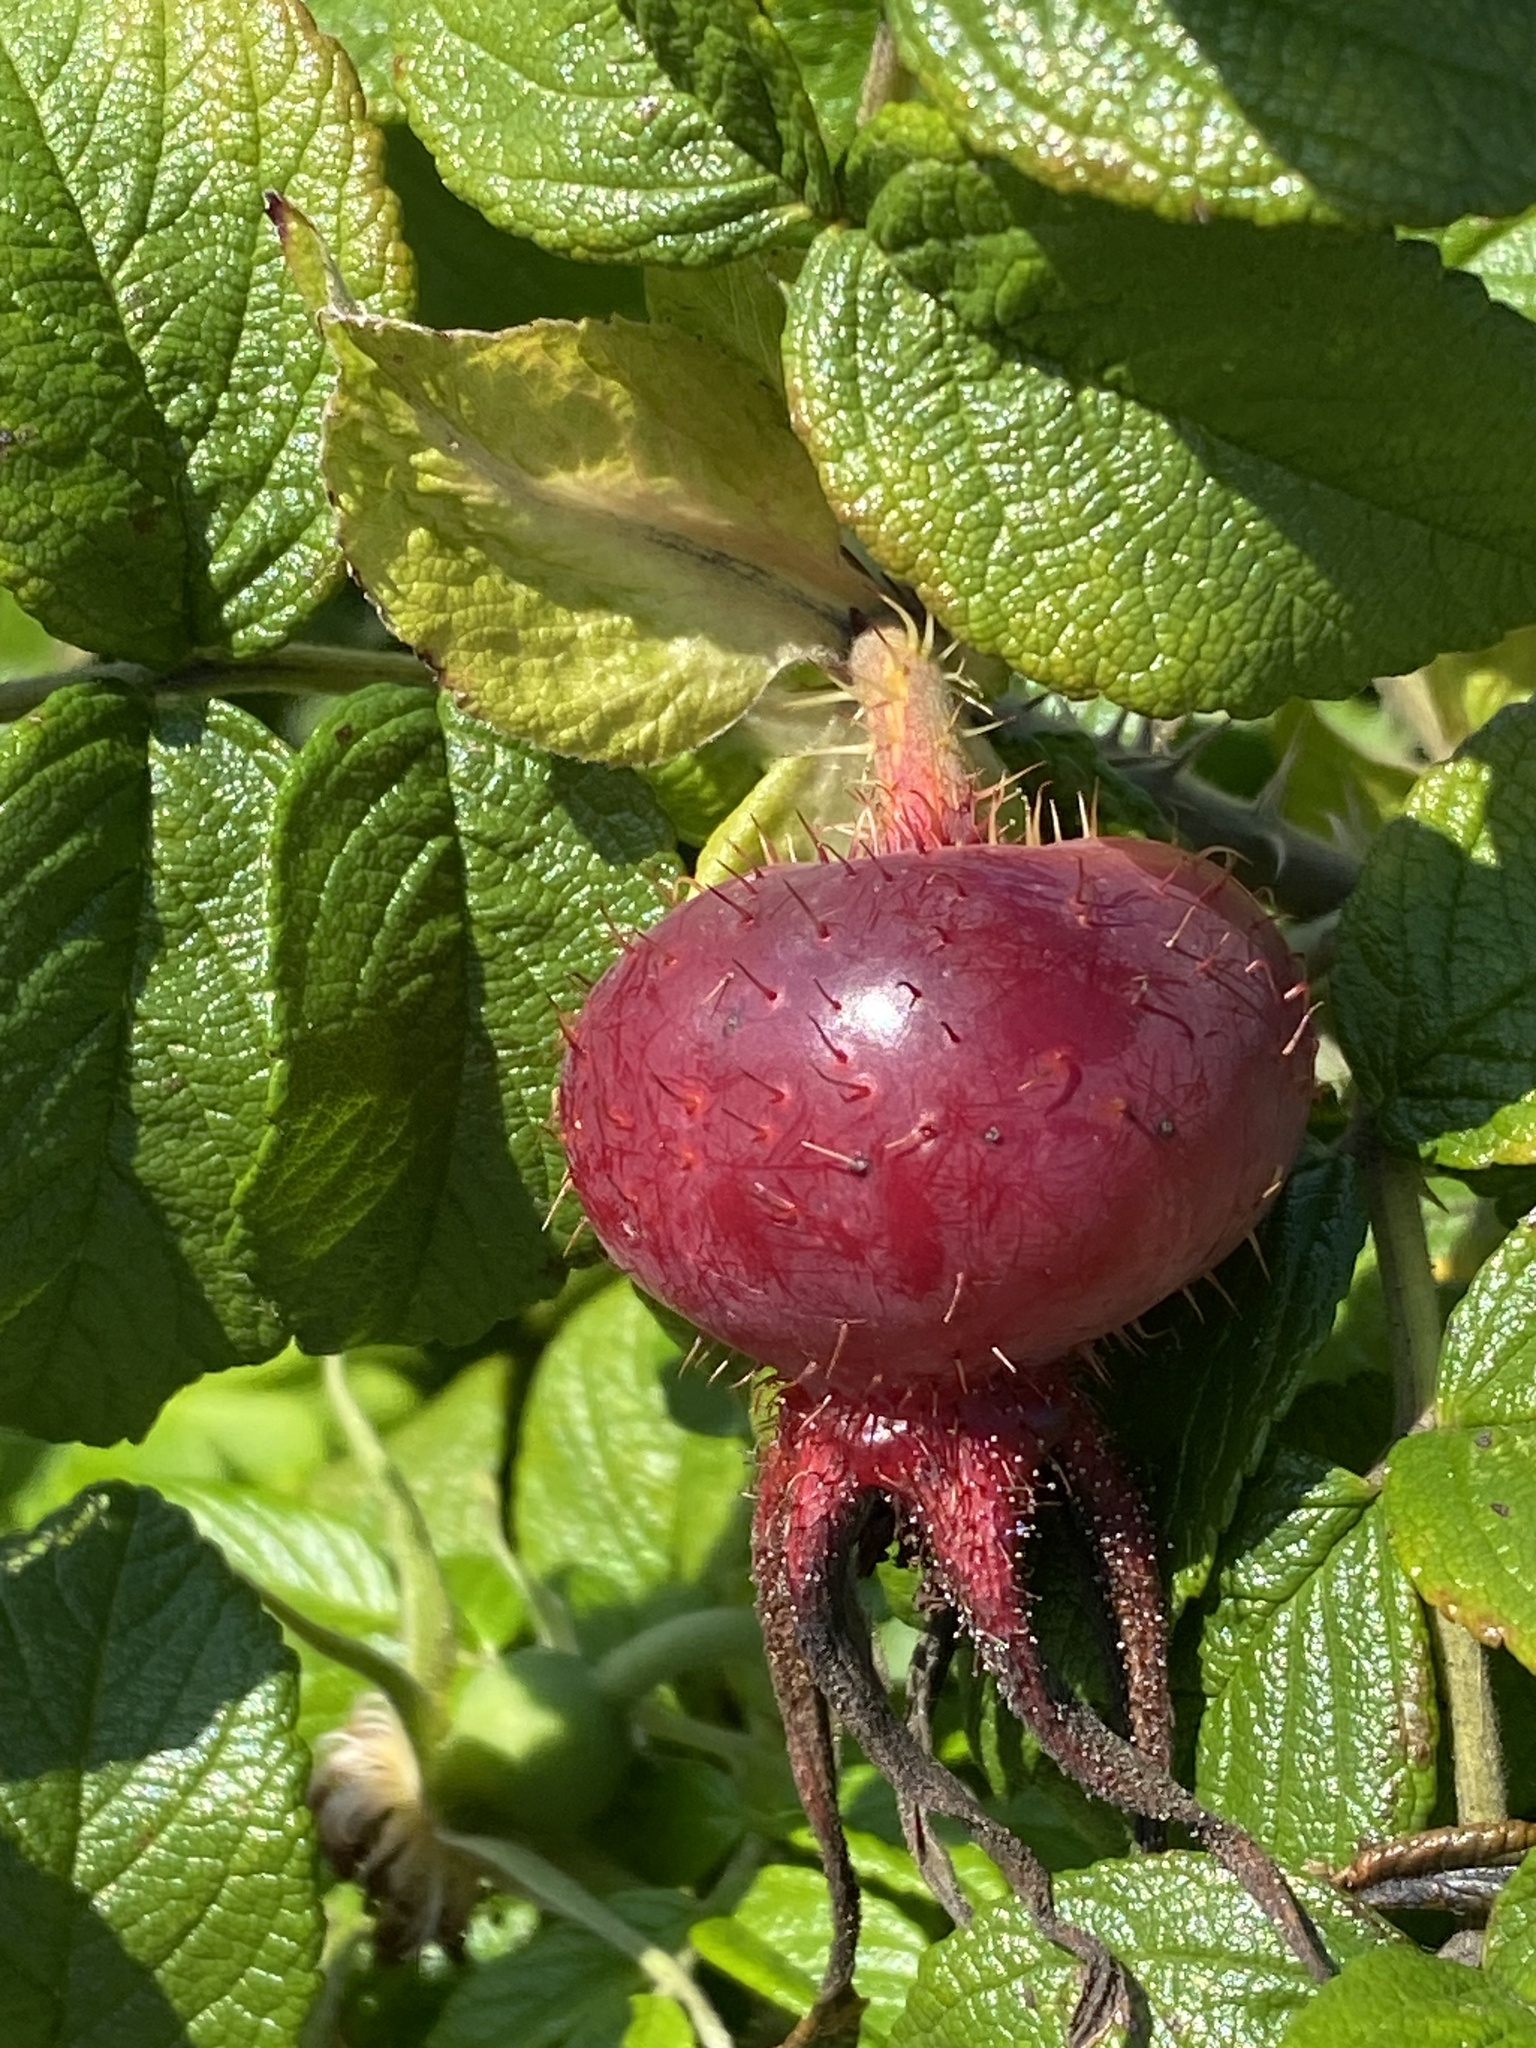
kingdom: Plantae
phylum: Tracheophyta
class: Magnoliopsida
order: Rosales
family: Rosaceae
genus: Rosa
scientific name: Rosa rugosa
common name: Japanese rose
